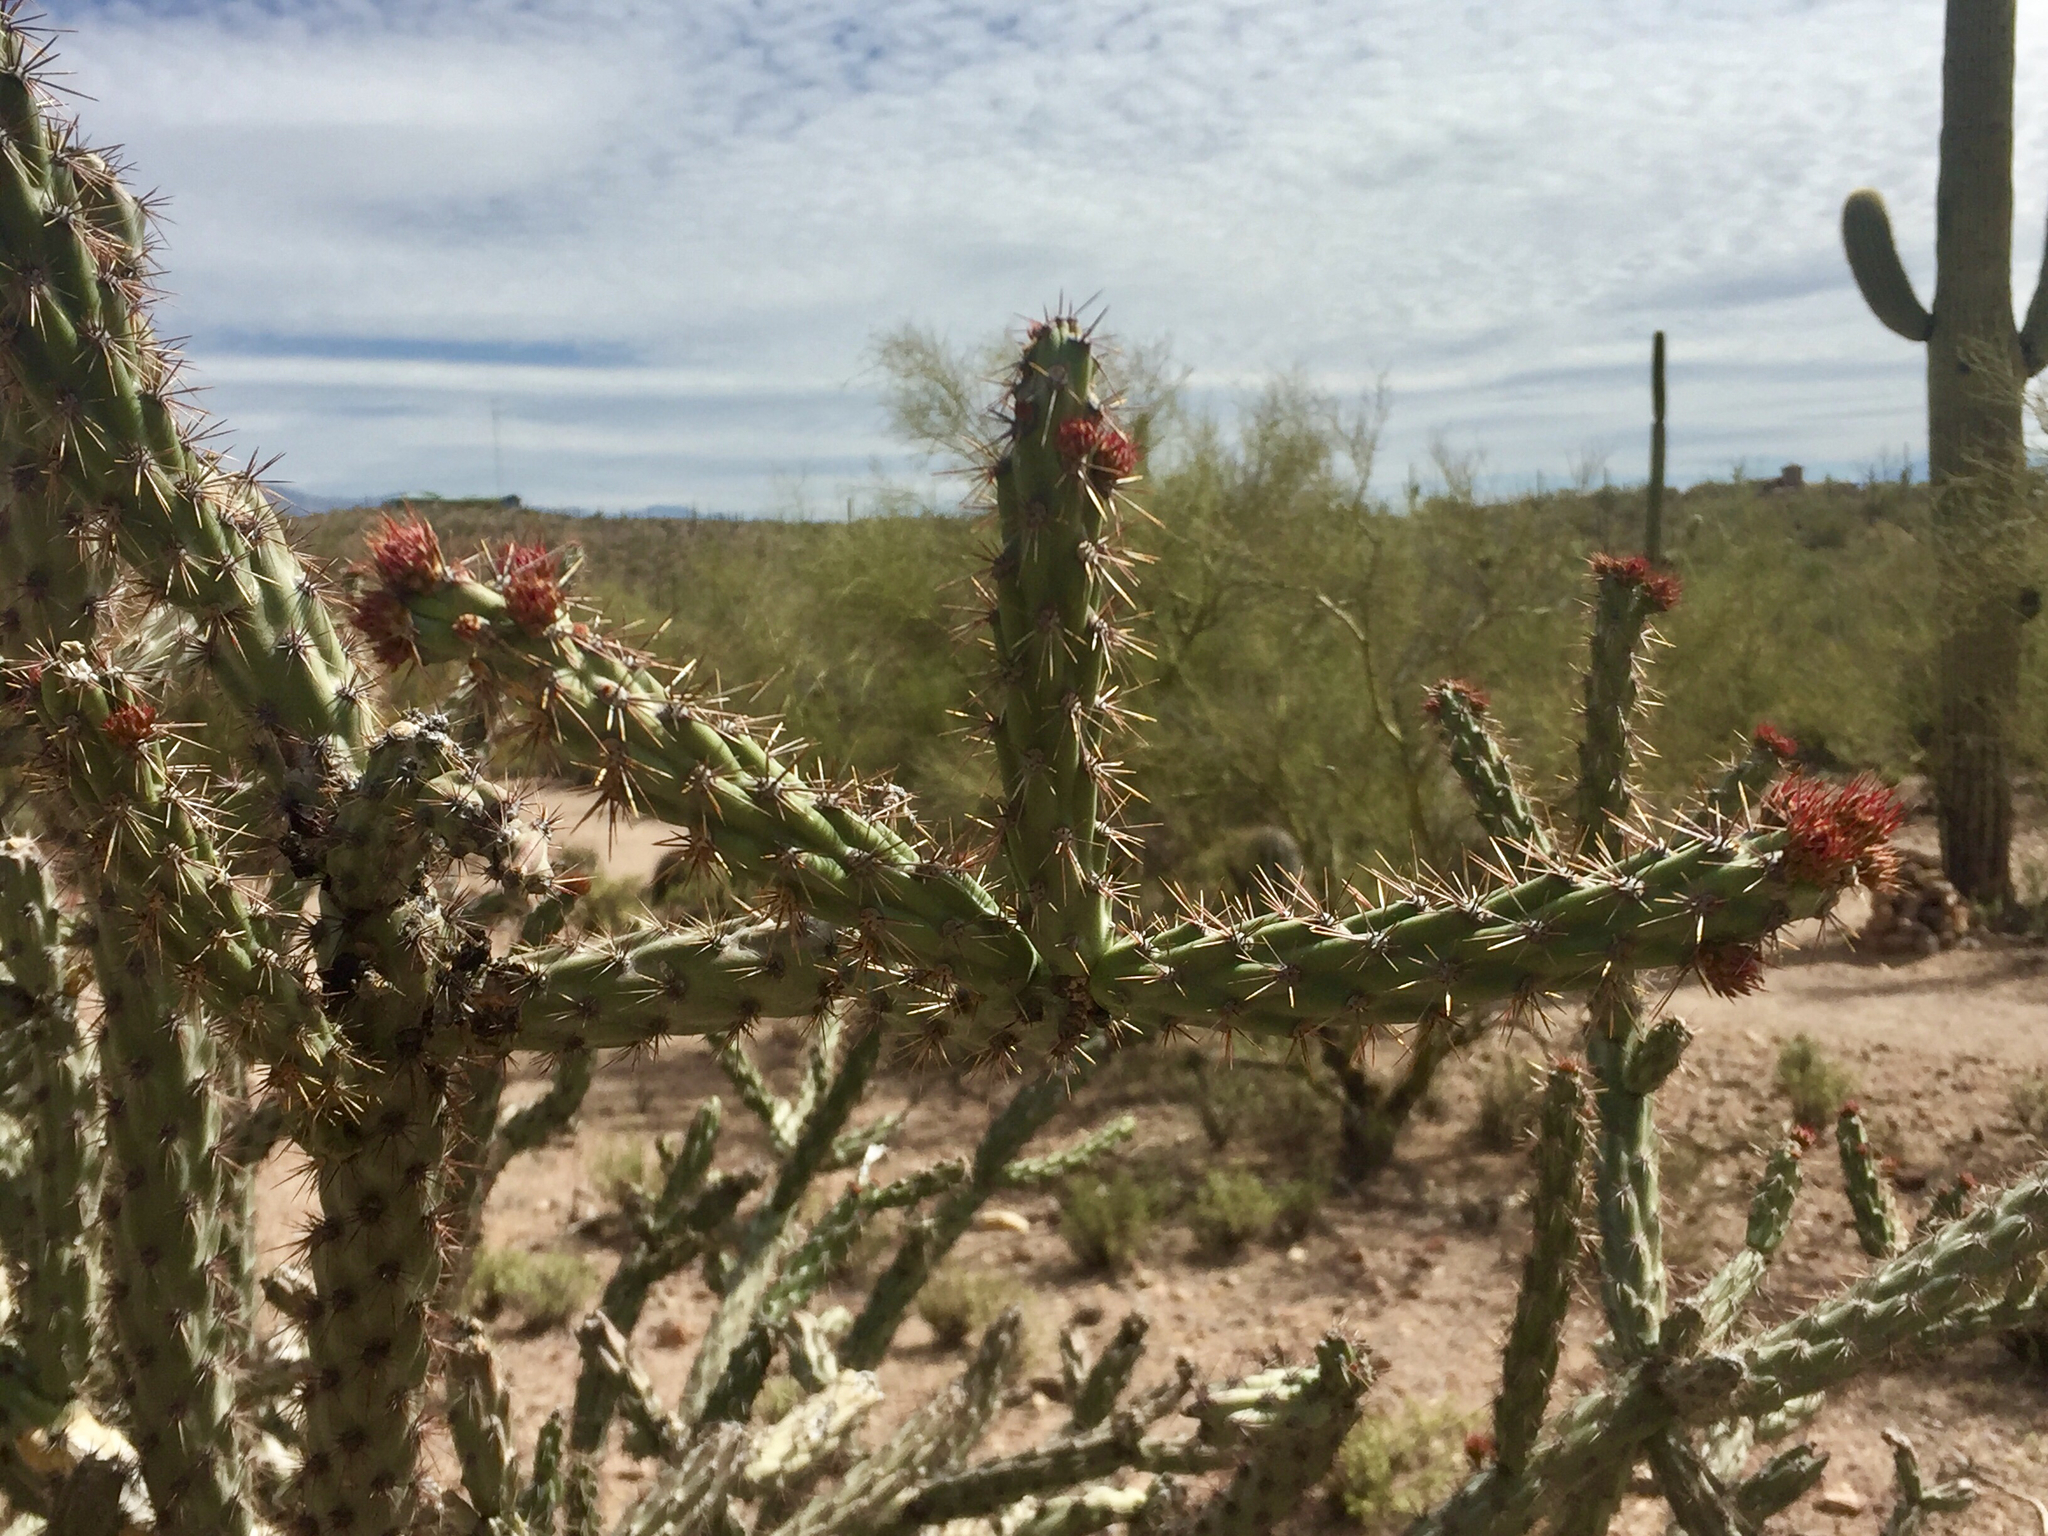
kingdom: Plantae
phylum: Tracheophyta
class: Magnoliopsida
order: Caryophyllales
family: Cactaceae
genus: Cylindropuntia
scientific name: Cylindropuntia acanthocarpa
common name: Buckhorn cholla
